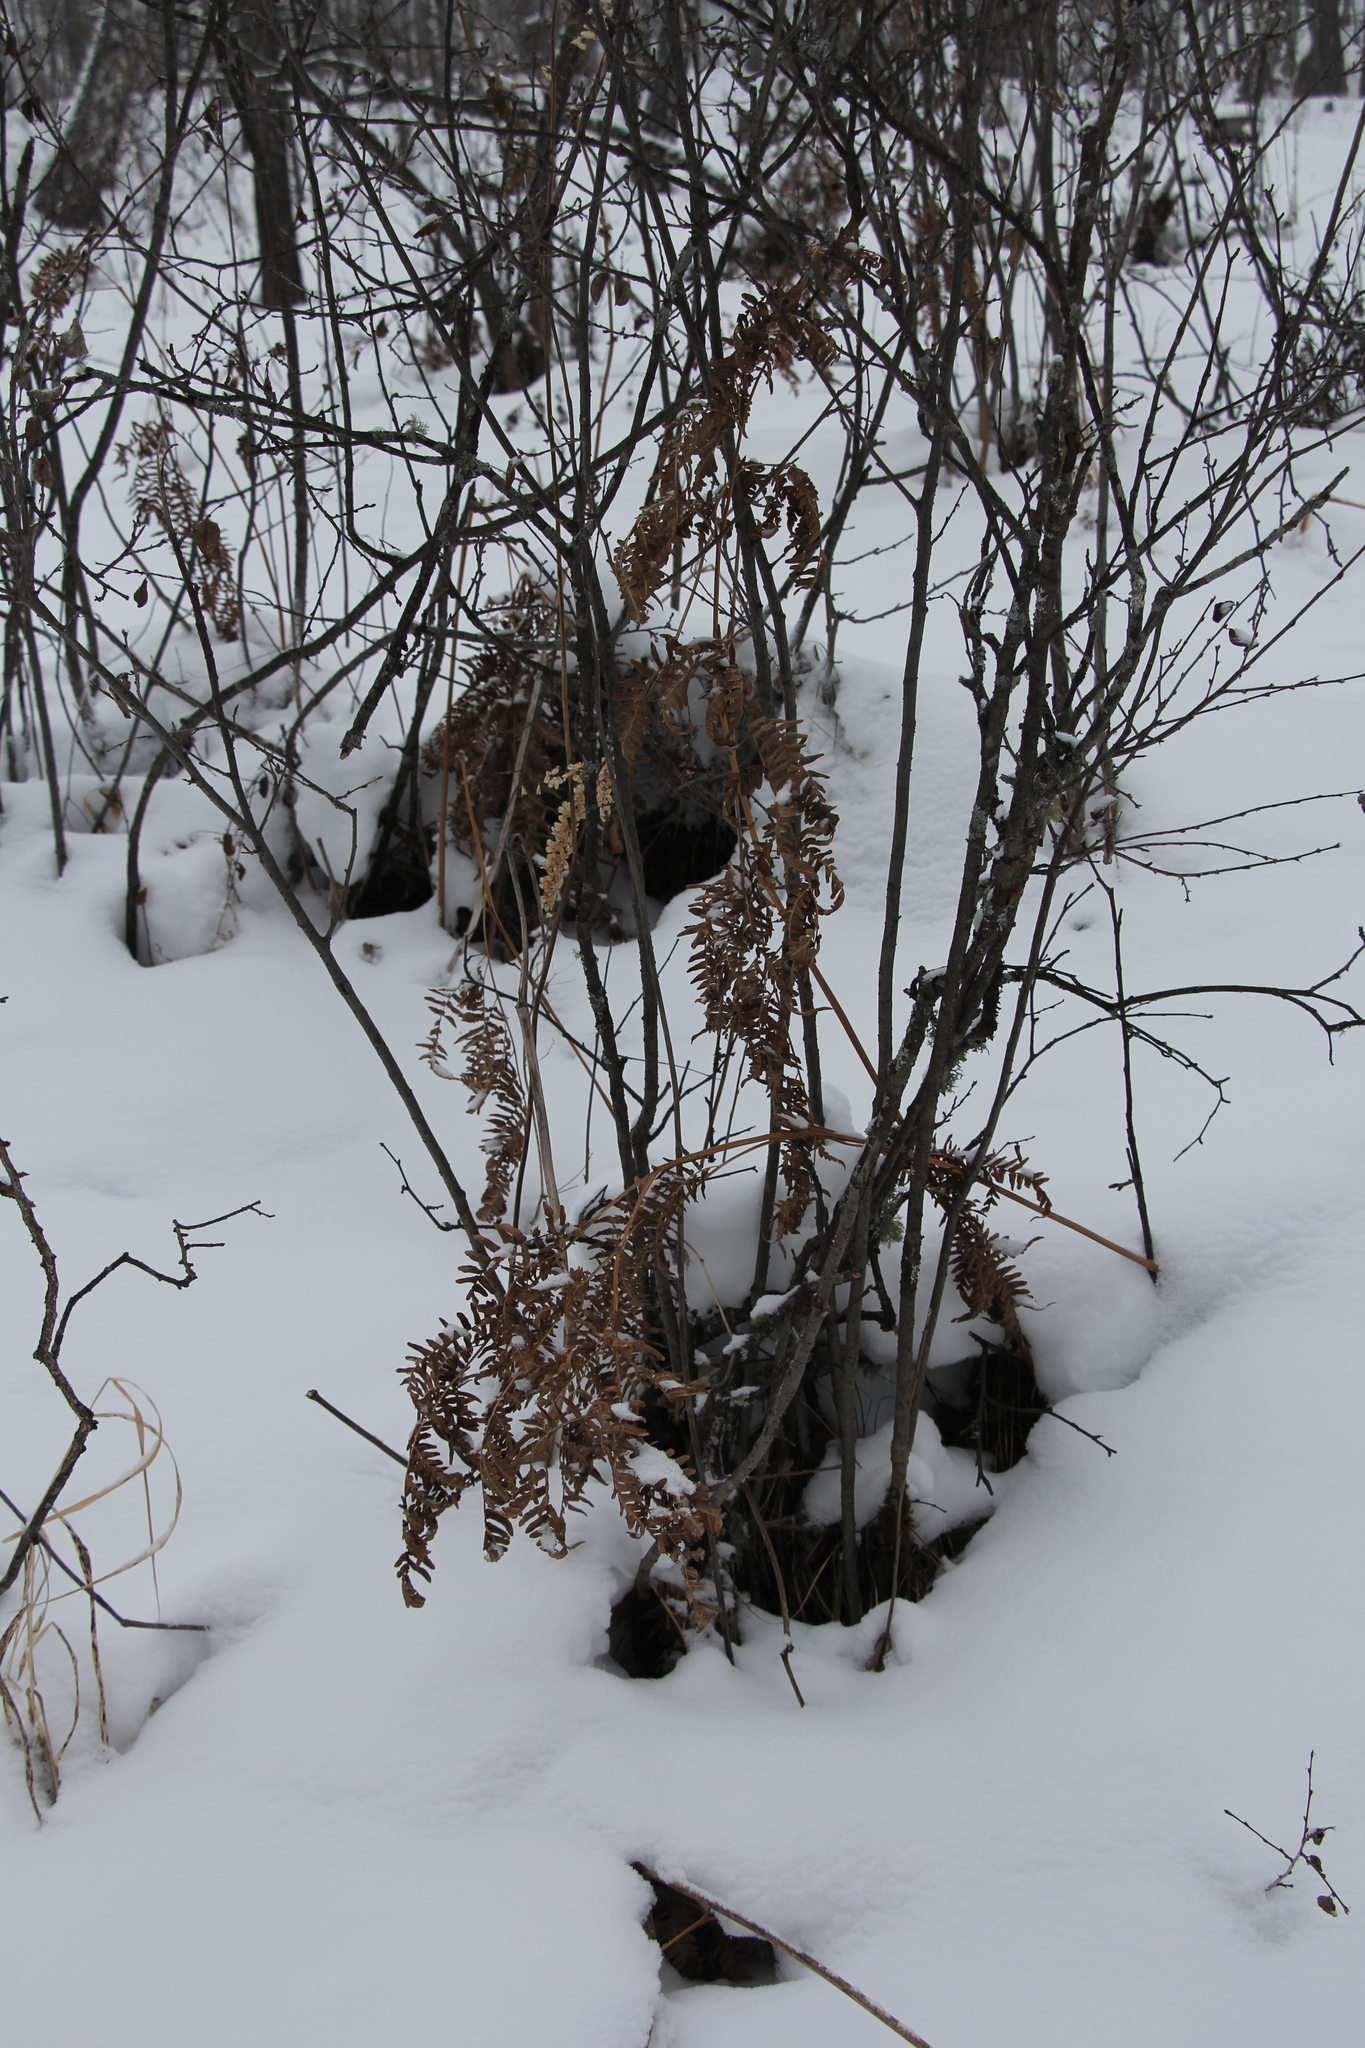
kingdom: Plantae
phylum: Tracheophyta
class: Polypodiopsida
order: Polypodiales
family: Dennstaedtiaceae
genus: Pteridium
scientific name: Pteridium aquilinum
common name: Bracken
